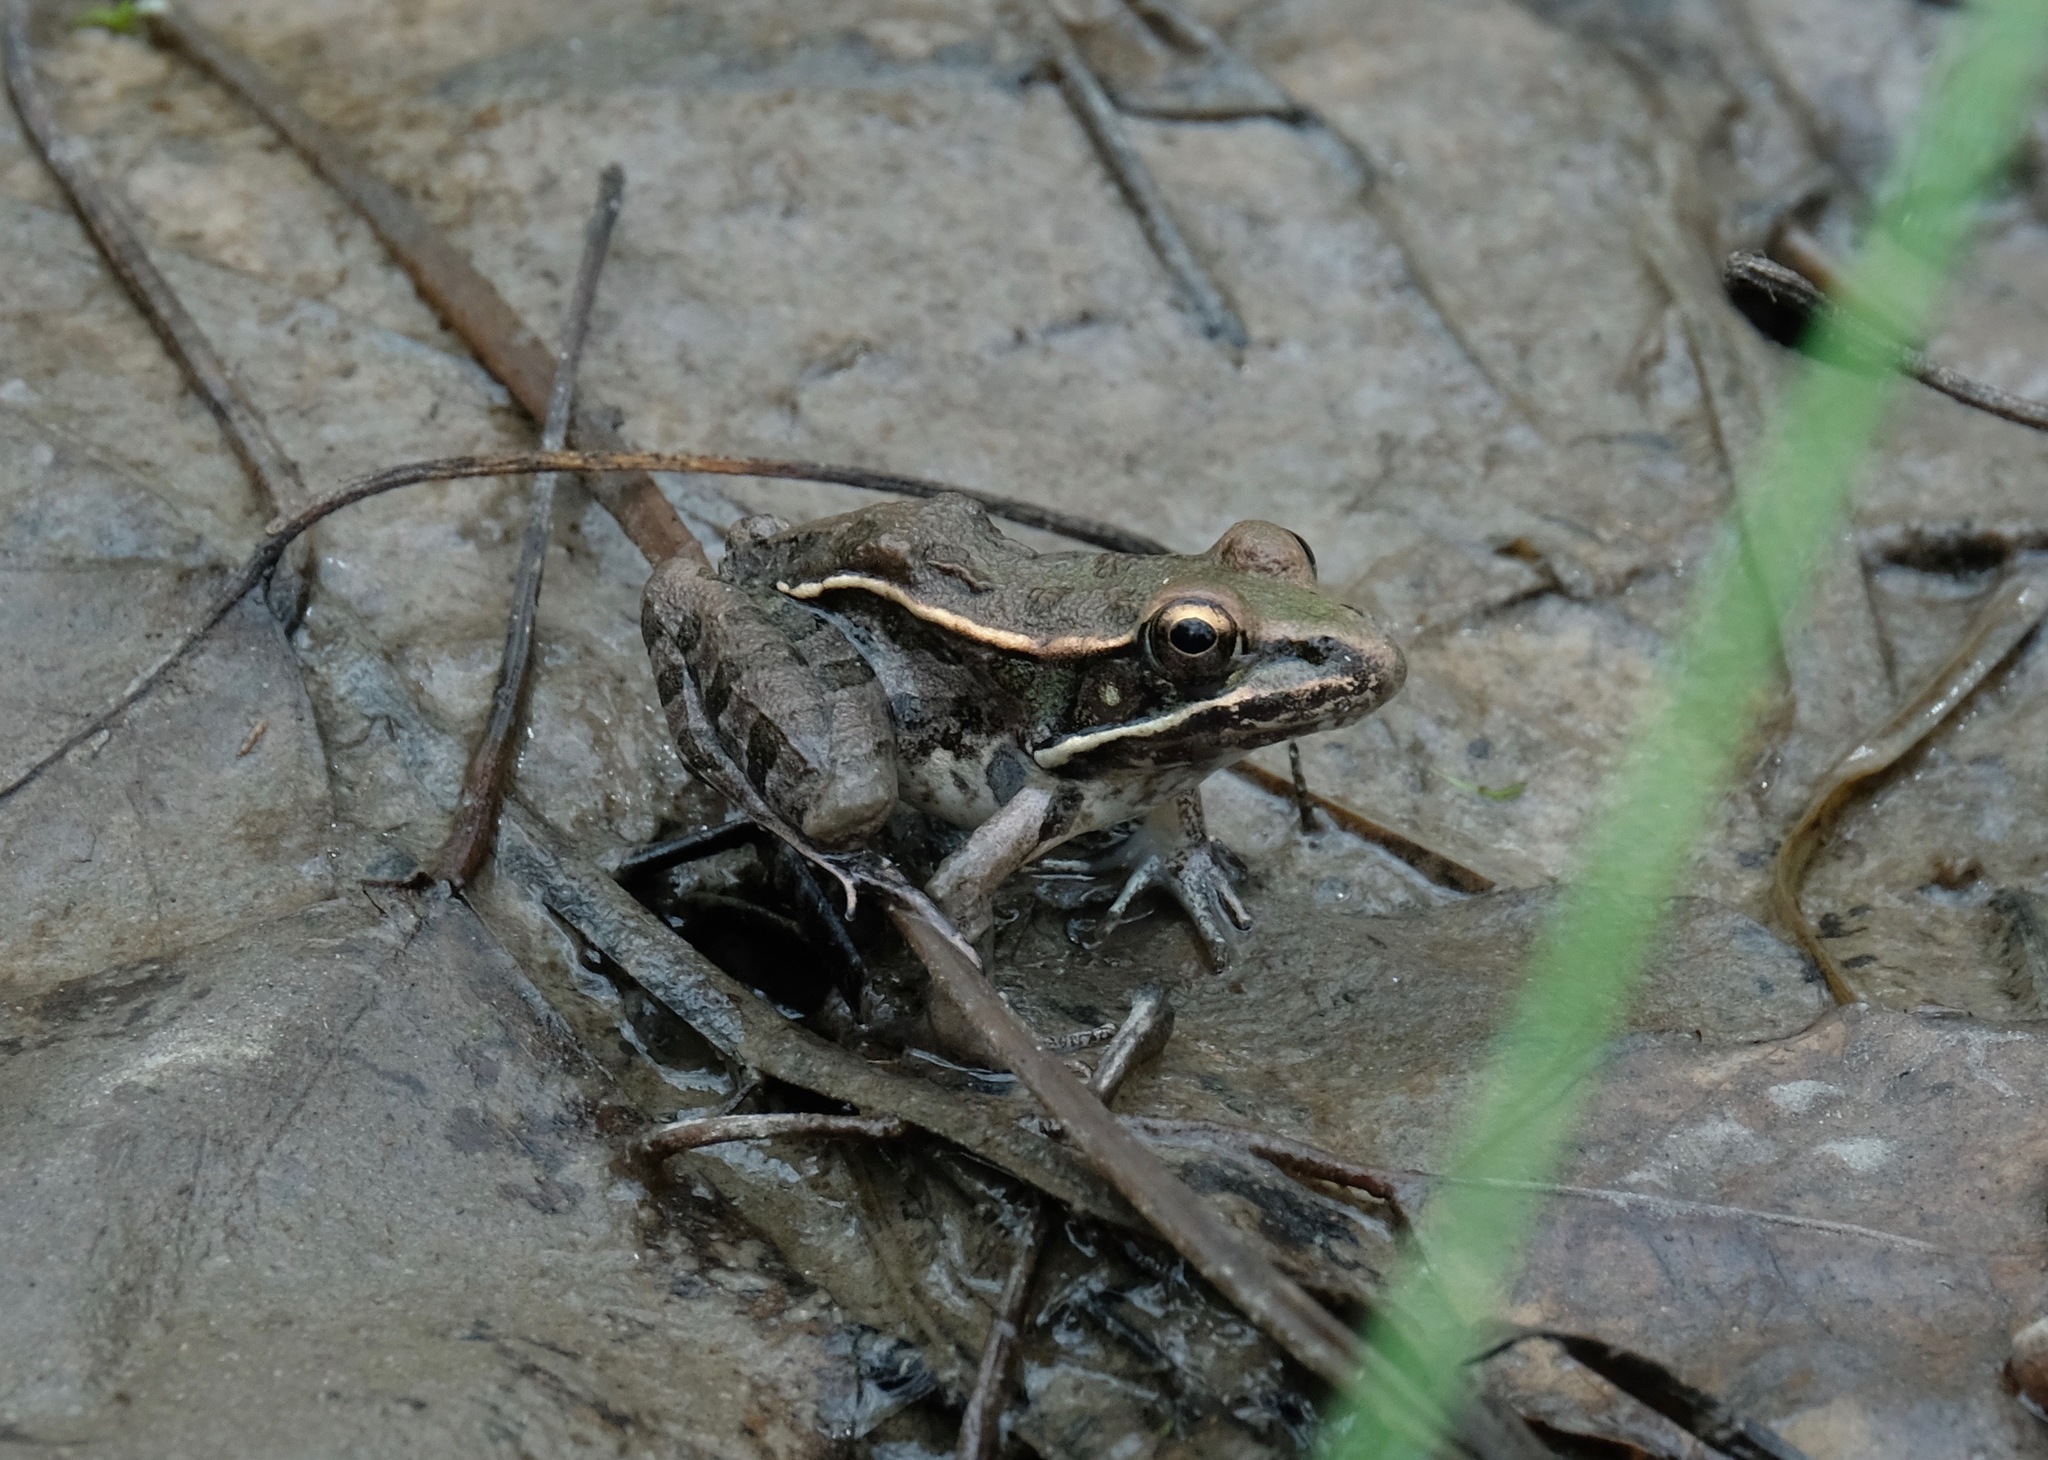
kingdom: Animalia
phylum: Chordata
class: Amphibia
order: Anura
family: Ranidae
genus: Lithobates
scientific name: Lithobates sphenocephalus
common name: Southern leopard frog
